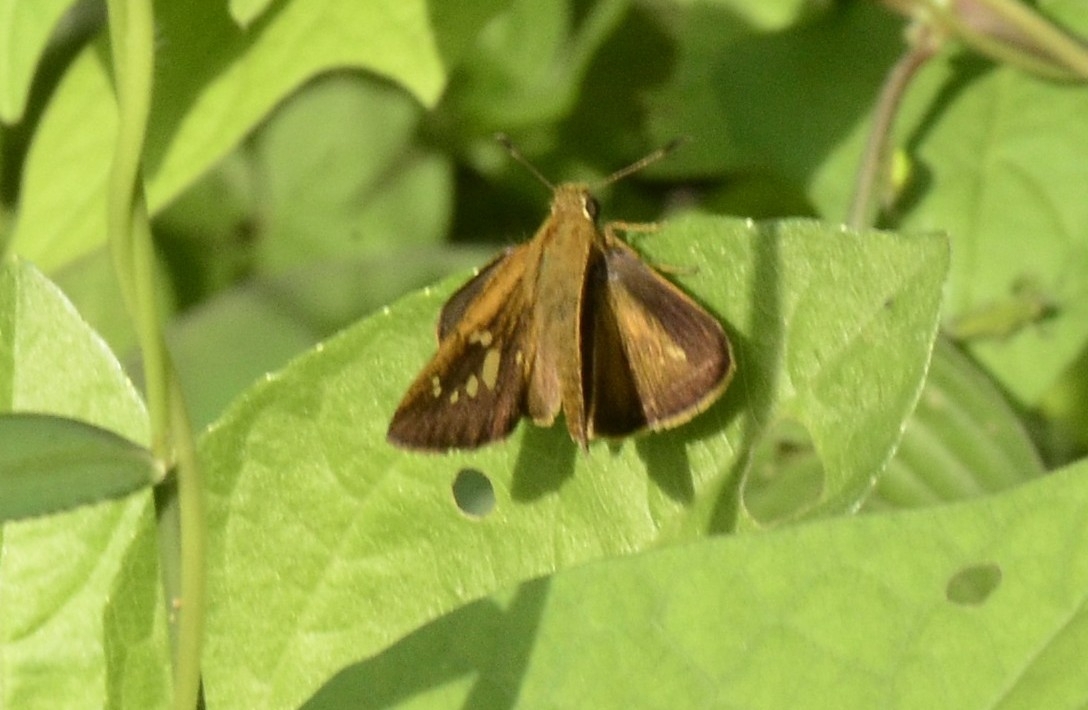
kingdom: Animalia
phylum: Arthropoda
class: Insecta
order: Lepidoptera
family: Hesperiidae
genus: Polytremis
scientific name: Polytremis lubricans
